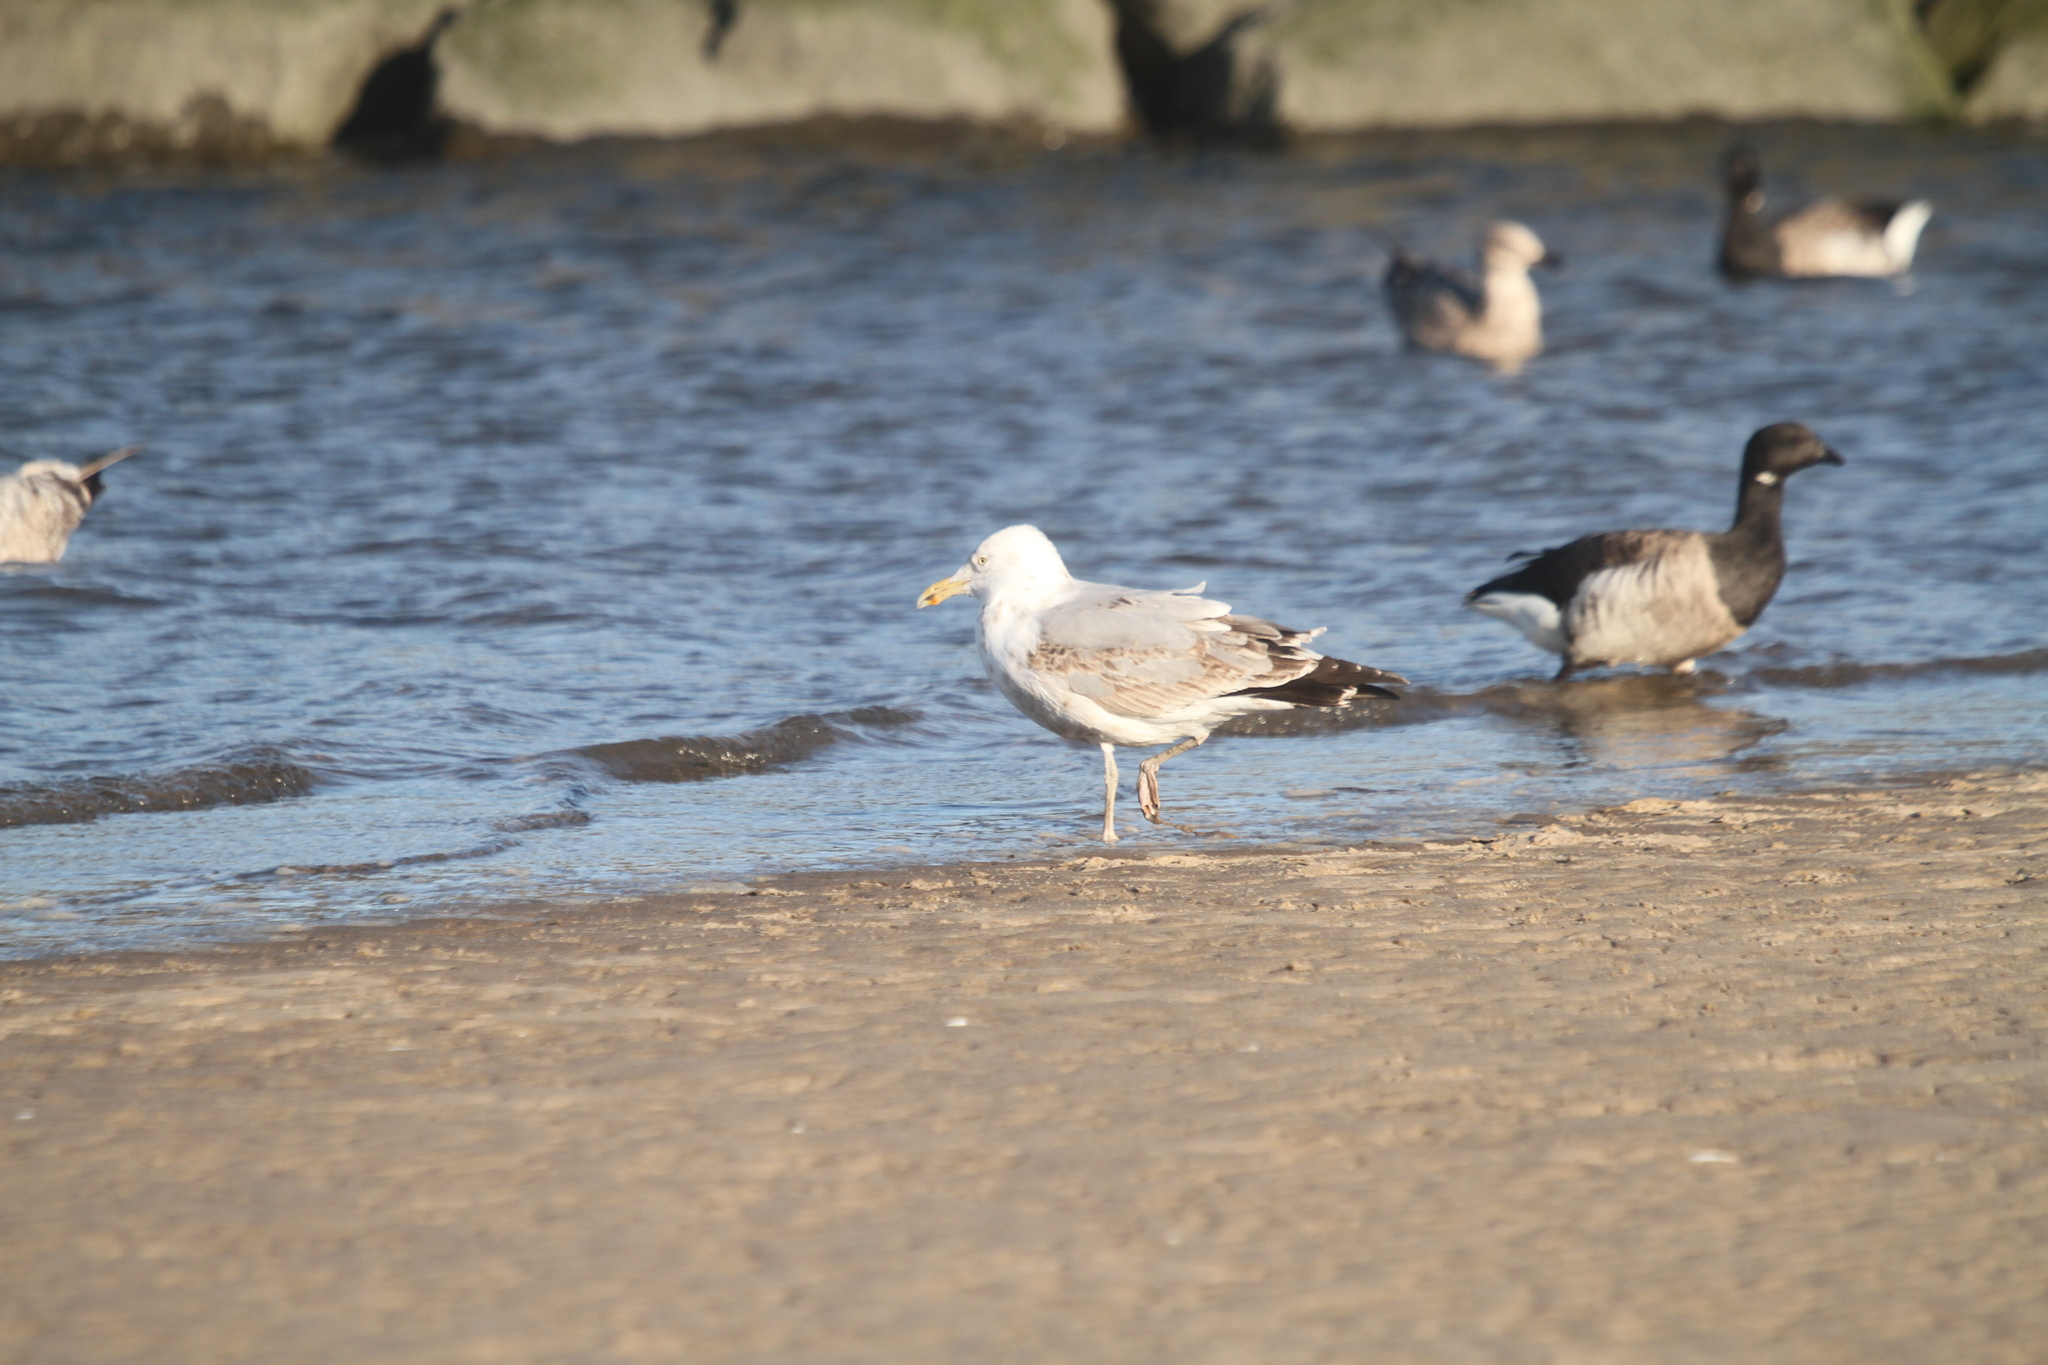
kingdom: Animalia
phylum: Chordata
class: Aves
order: Charadriiformes
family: Laridae
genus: Larus
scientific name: Larus argentatus
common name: Herring gull
